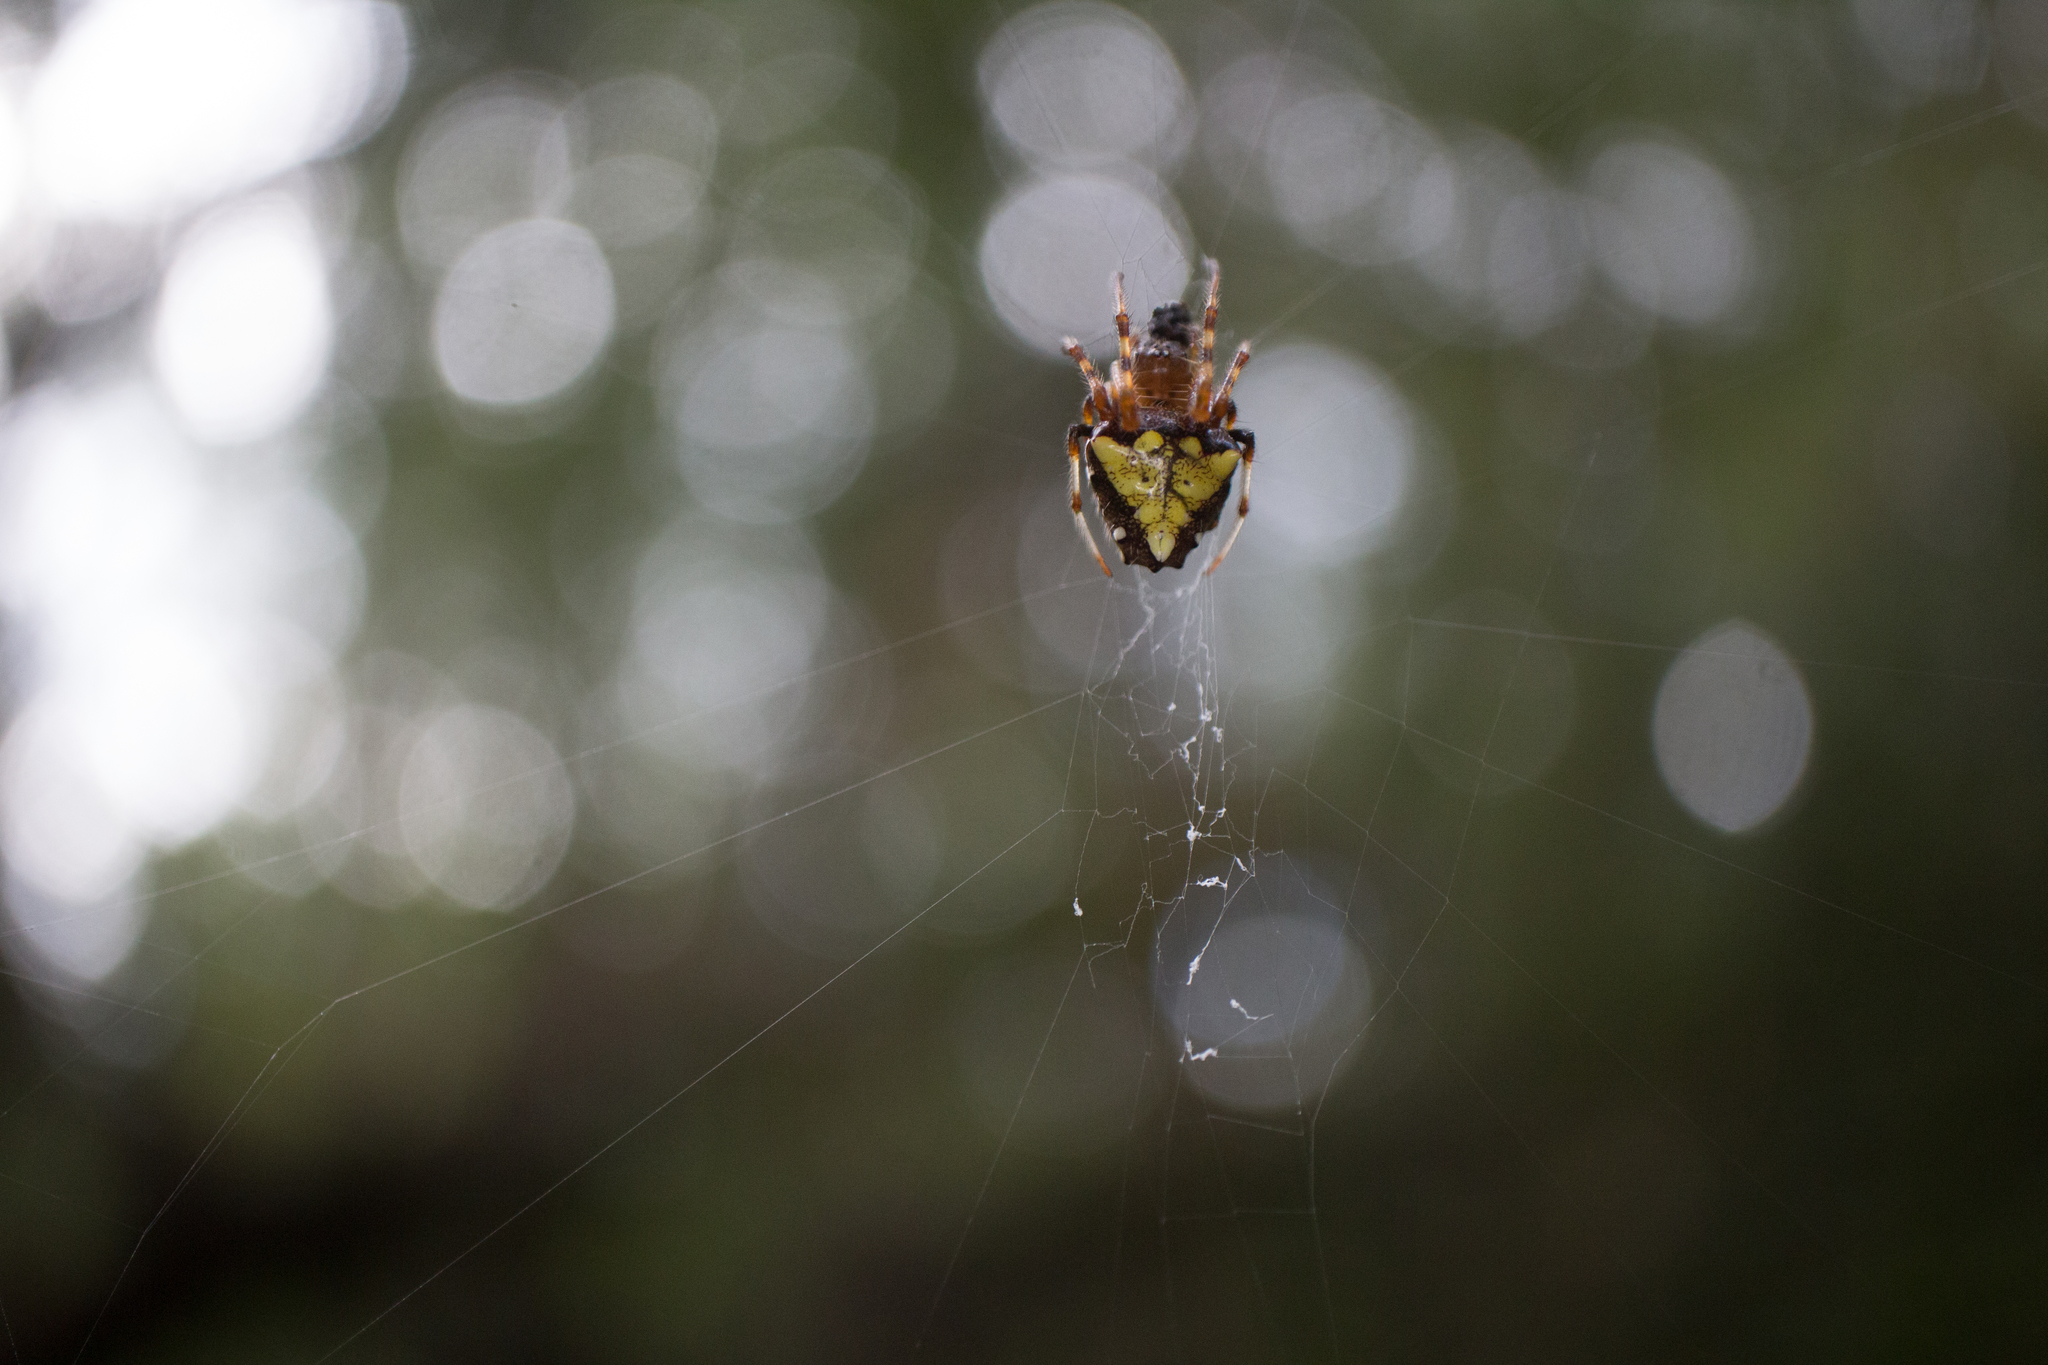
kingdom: Animalia
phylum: Arthropoda
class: Arachnida
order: Araneae
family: Araneidae
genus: Verrucosa
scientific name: Verrucosa arenata
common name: Orb weavers
